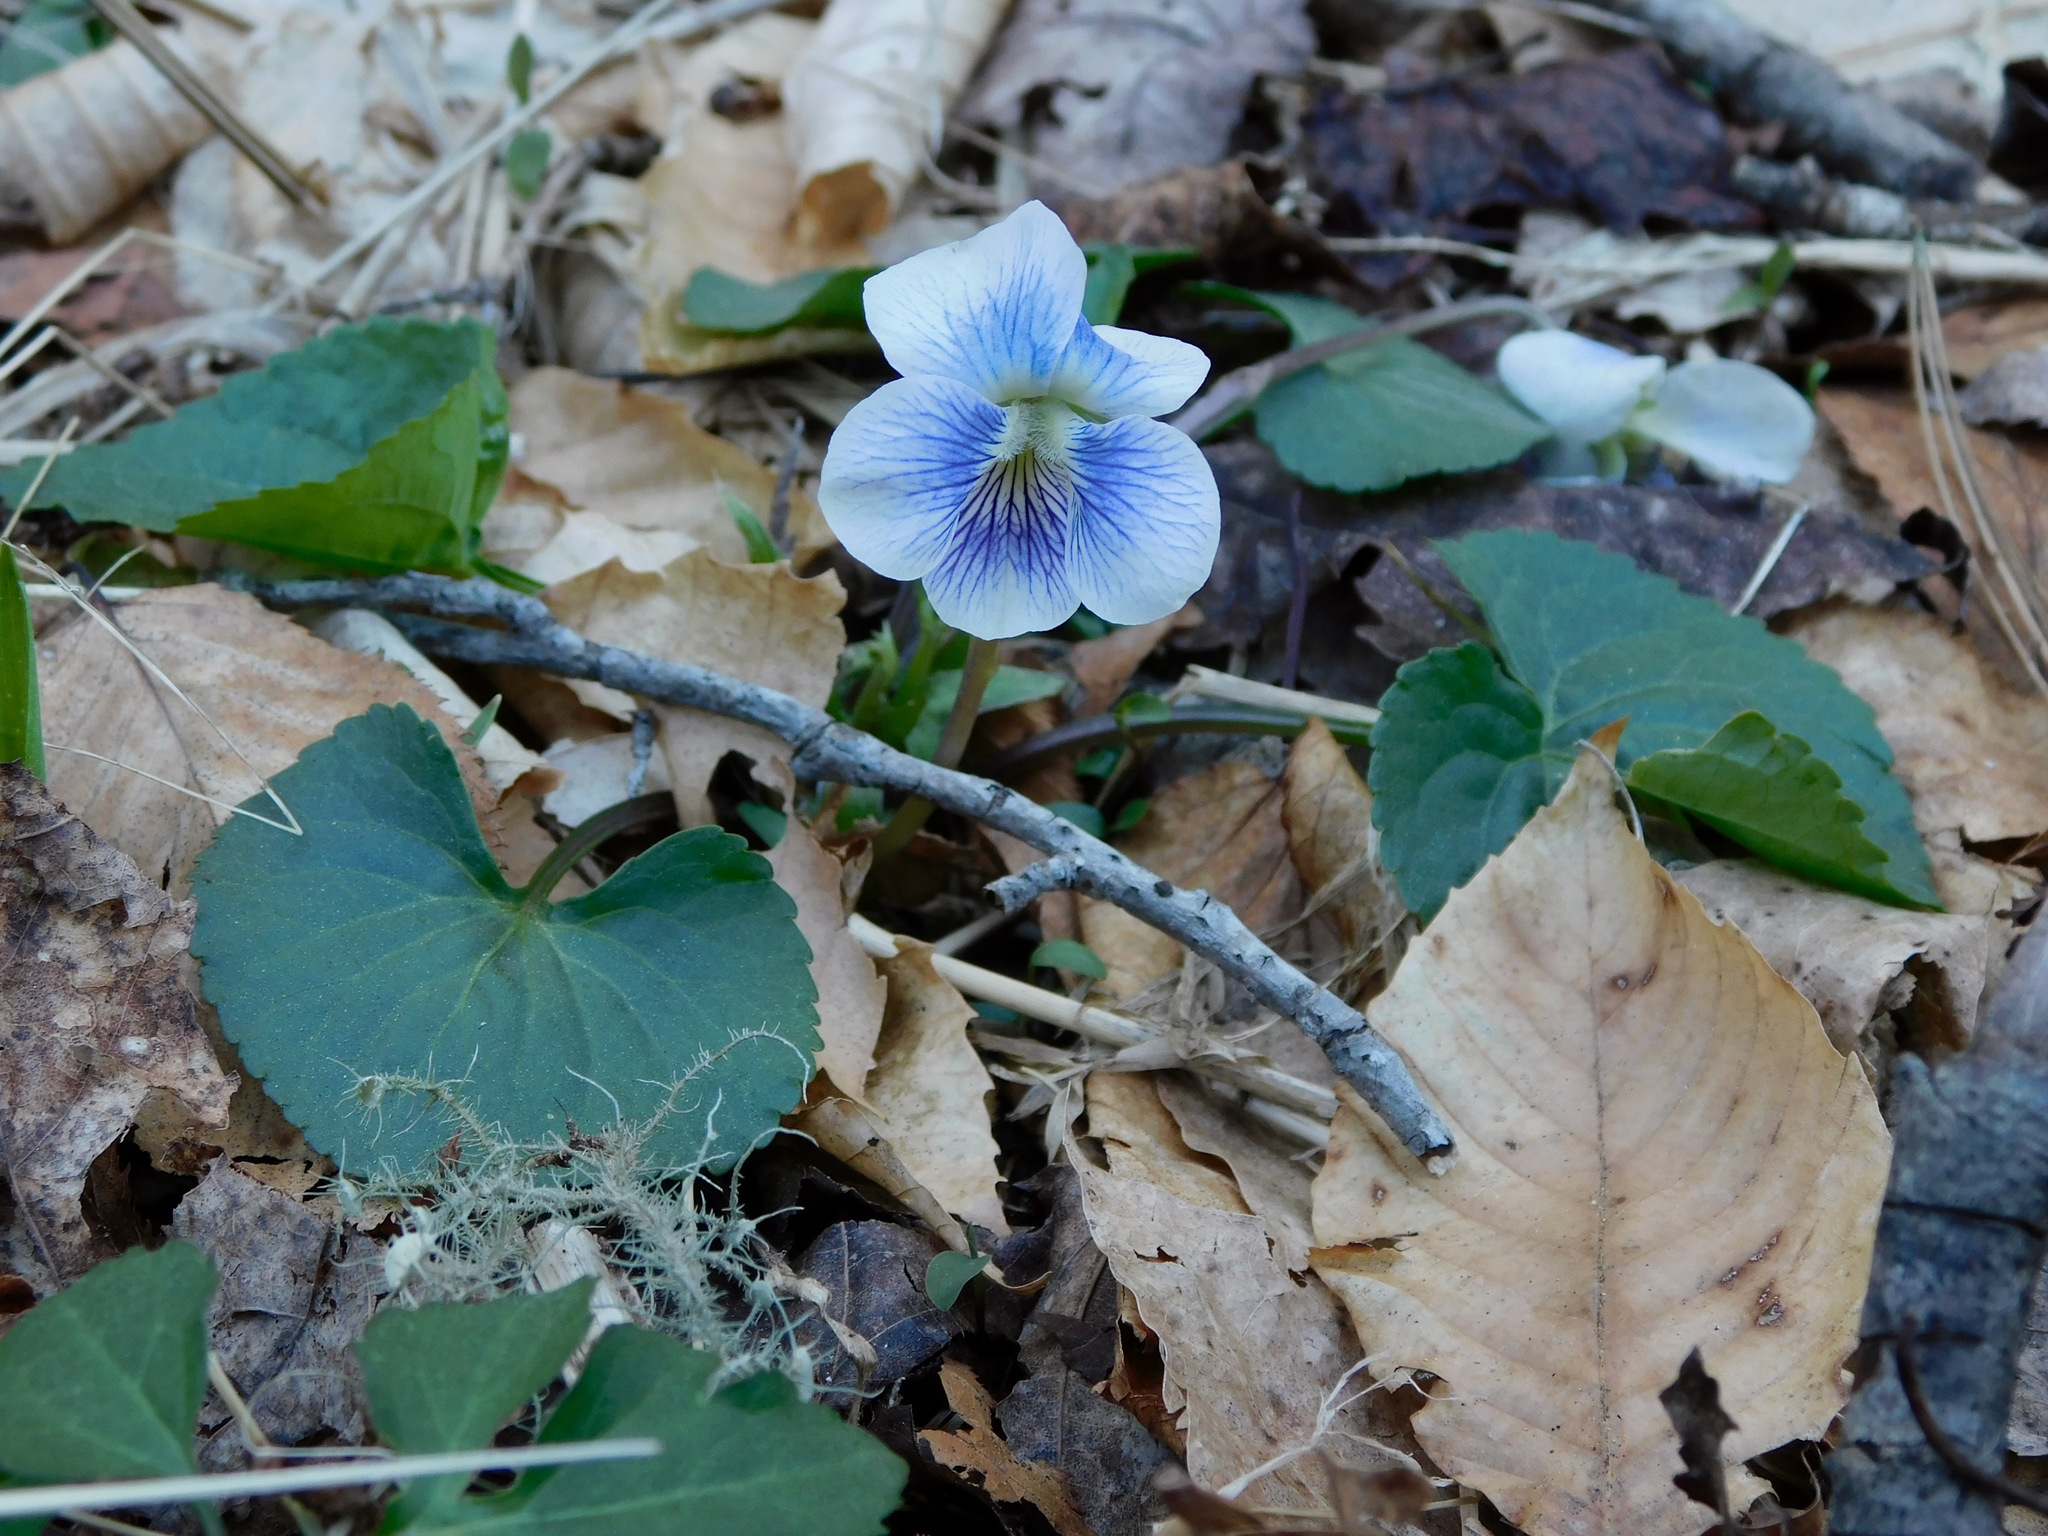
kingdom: Plantae
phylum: Tracheophyta
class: Magnoliopsida
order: Malpighiales
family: Violaceae
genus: Viola
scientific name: Viola sororia
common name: Dooryard violet
